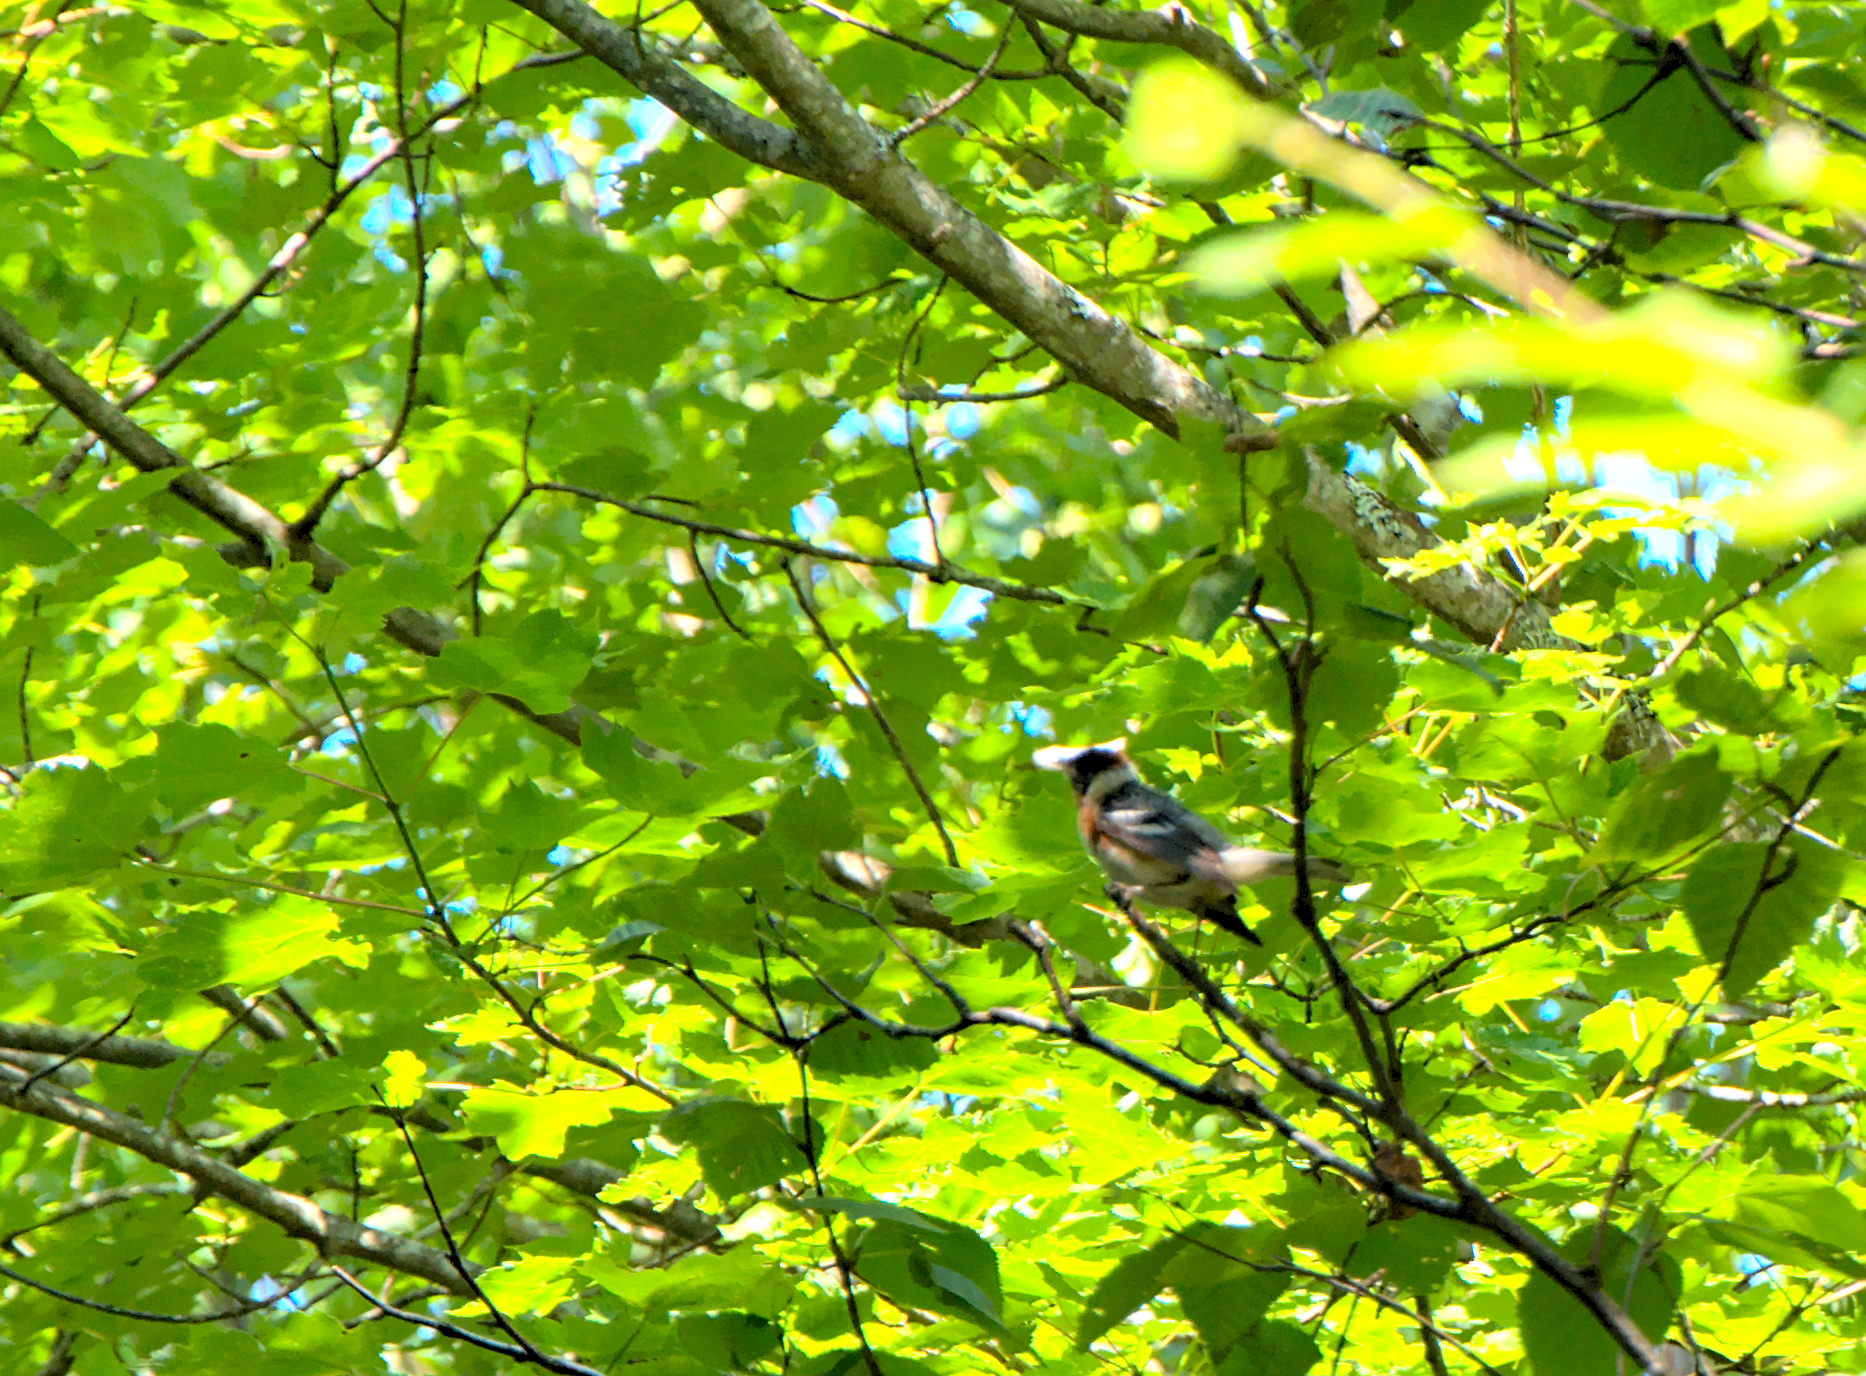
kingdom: Animalia
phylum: Chordata
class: Aves
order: Passeriformes
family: Parulidae
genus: Setophaga
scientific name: Setophaga castanea
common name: Bay-breasted warbler
